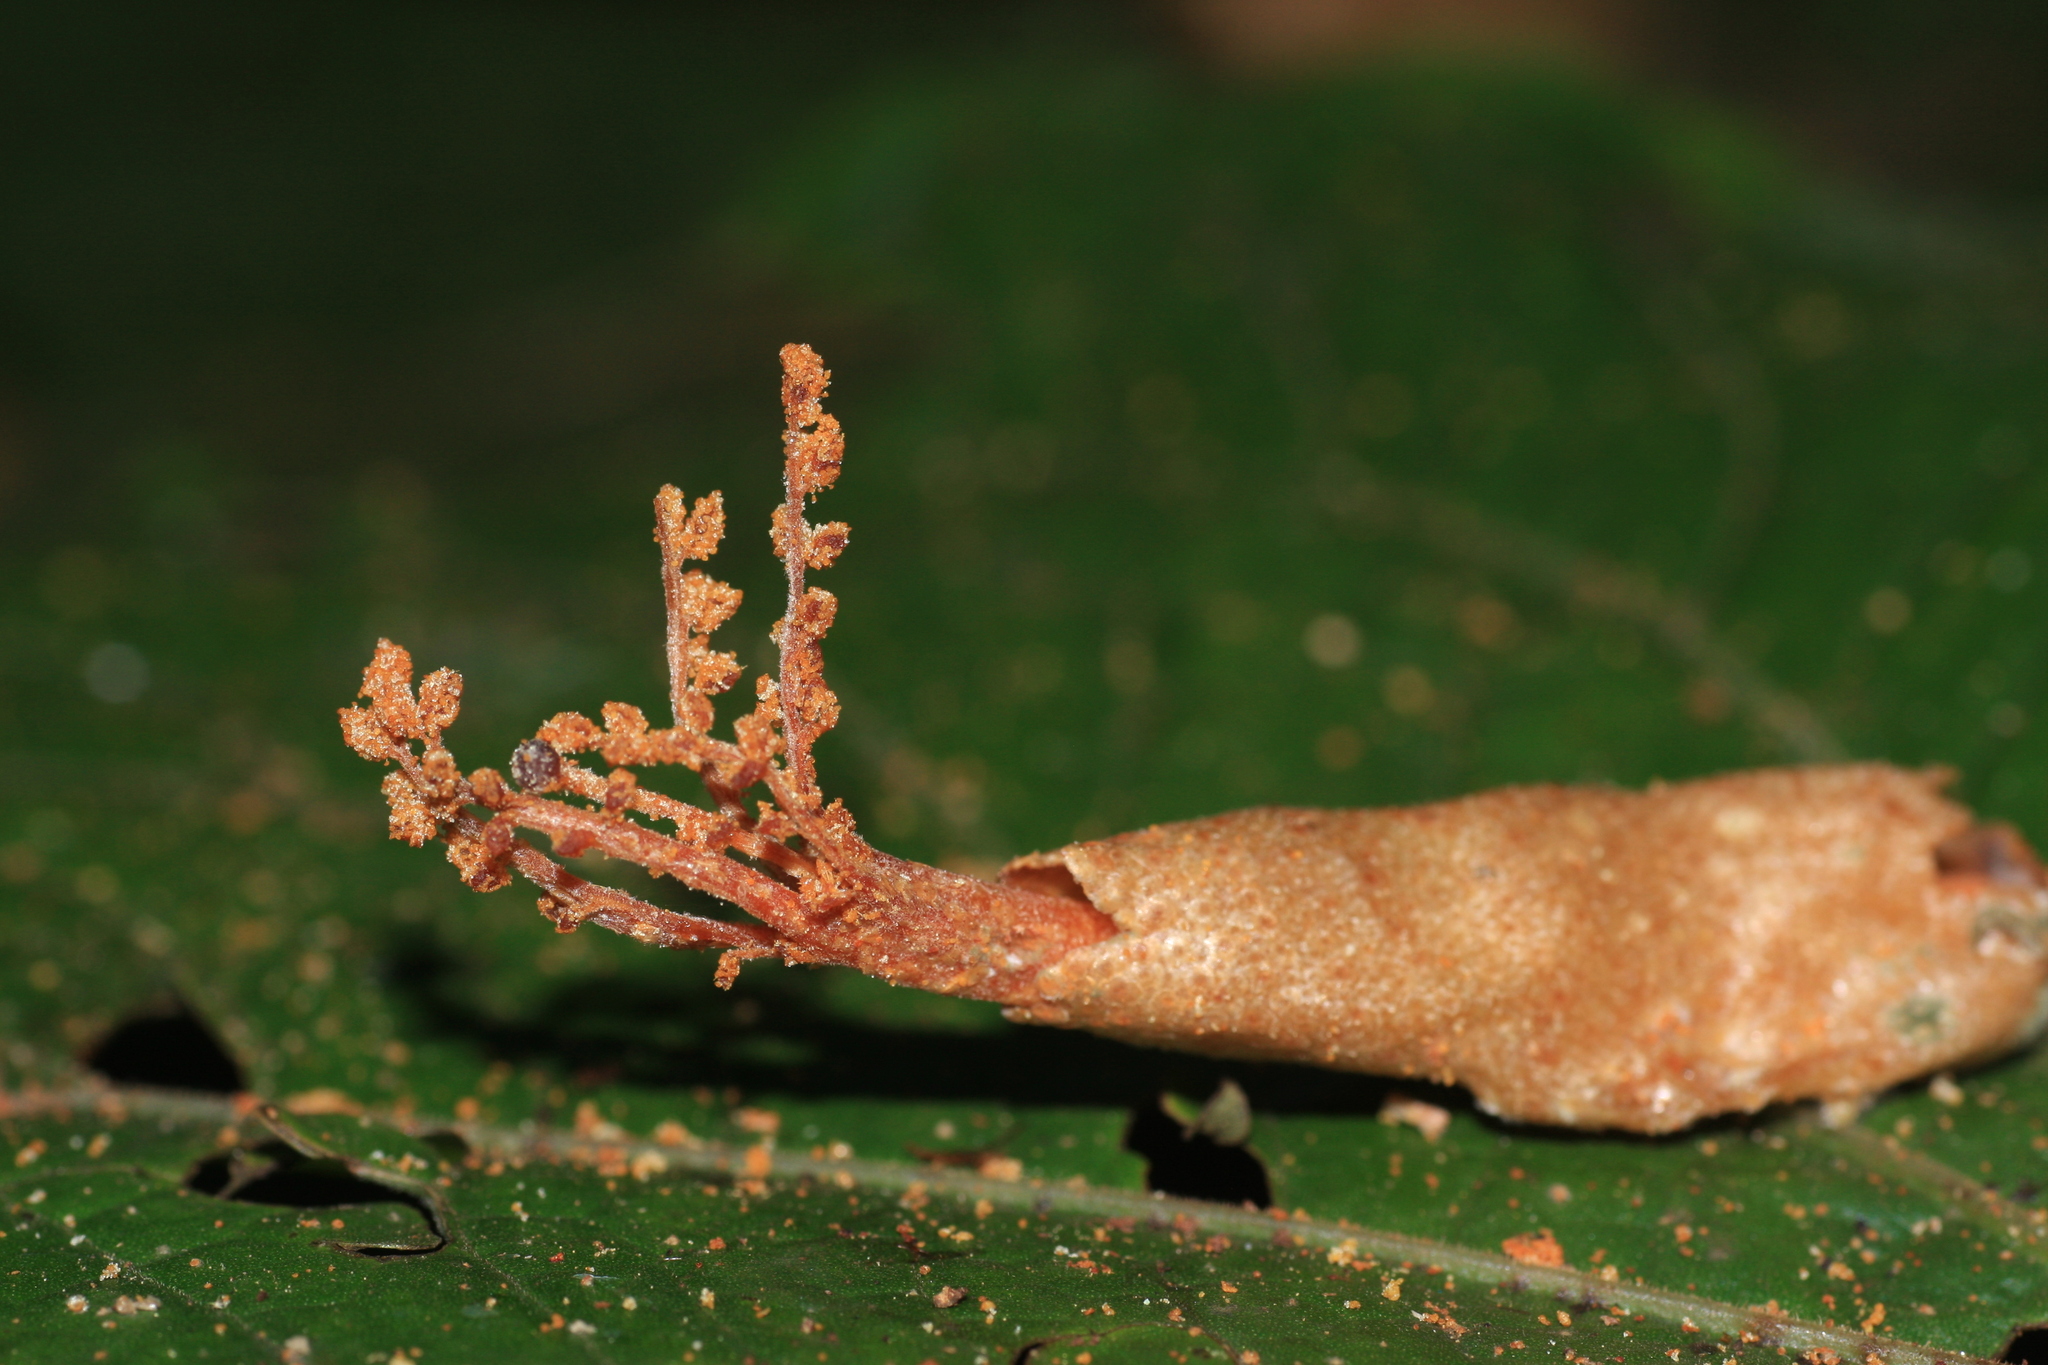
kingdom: Plantae
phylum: Tracheophyta
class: Magnoliopsida
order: Malvales
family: Malvaceae
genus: Cullenia
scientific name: Cullenia exarillata
